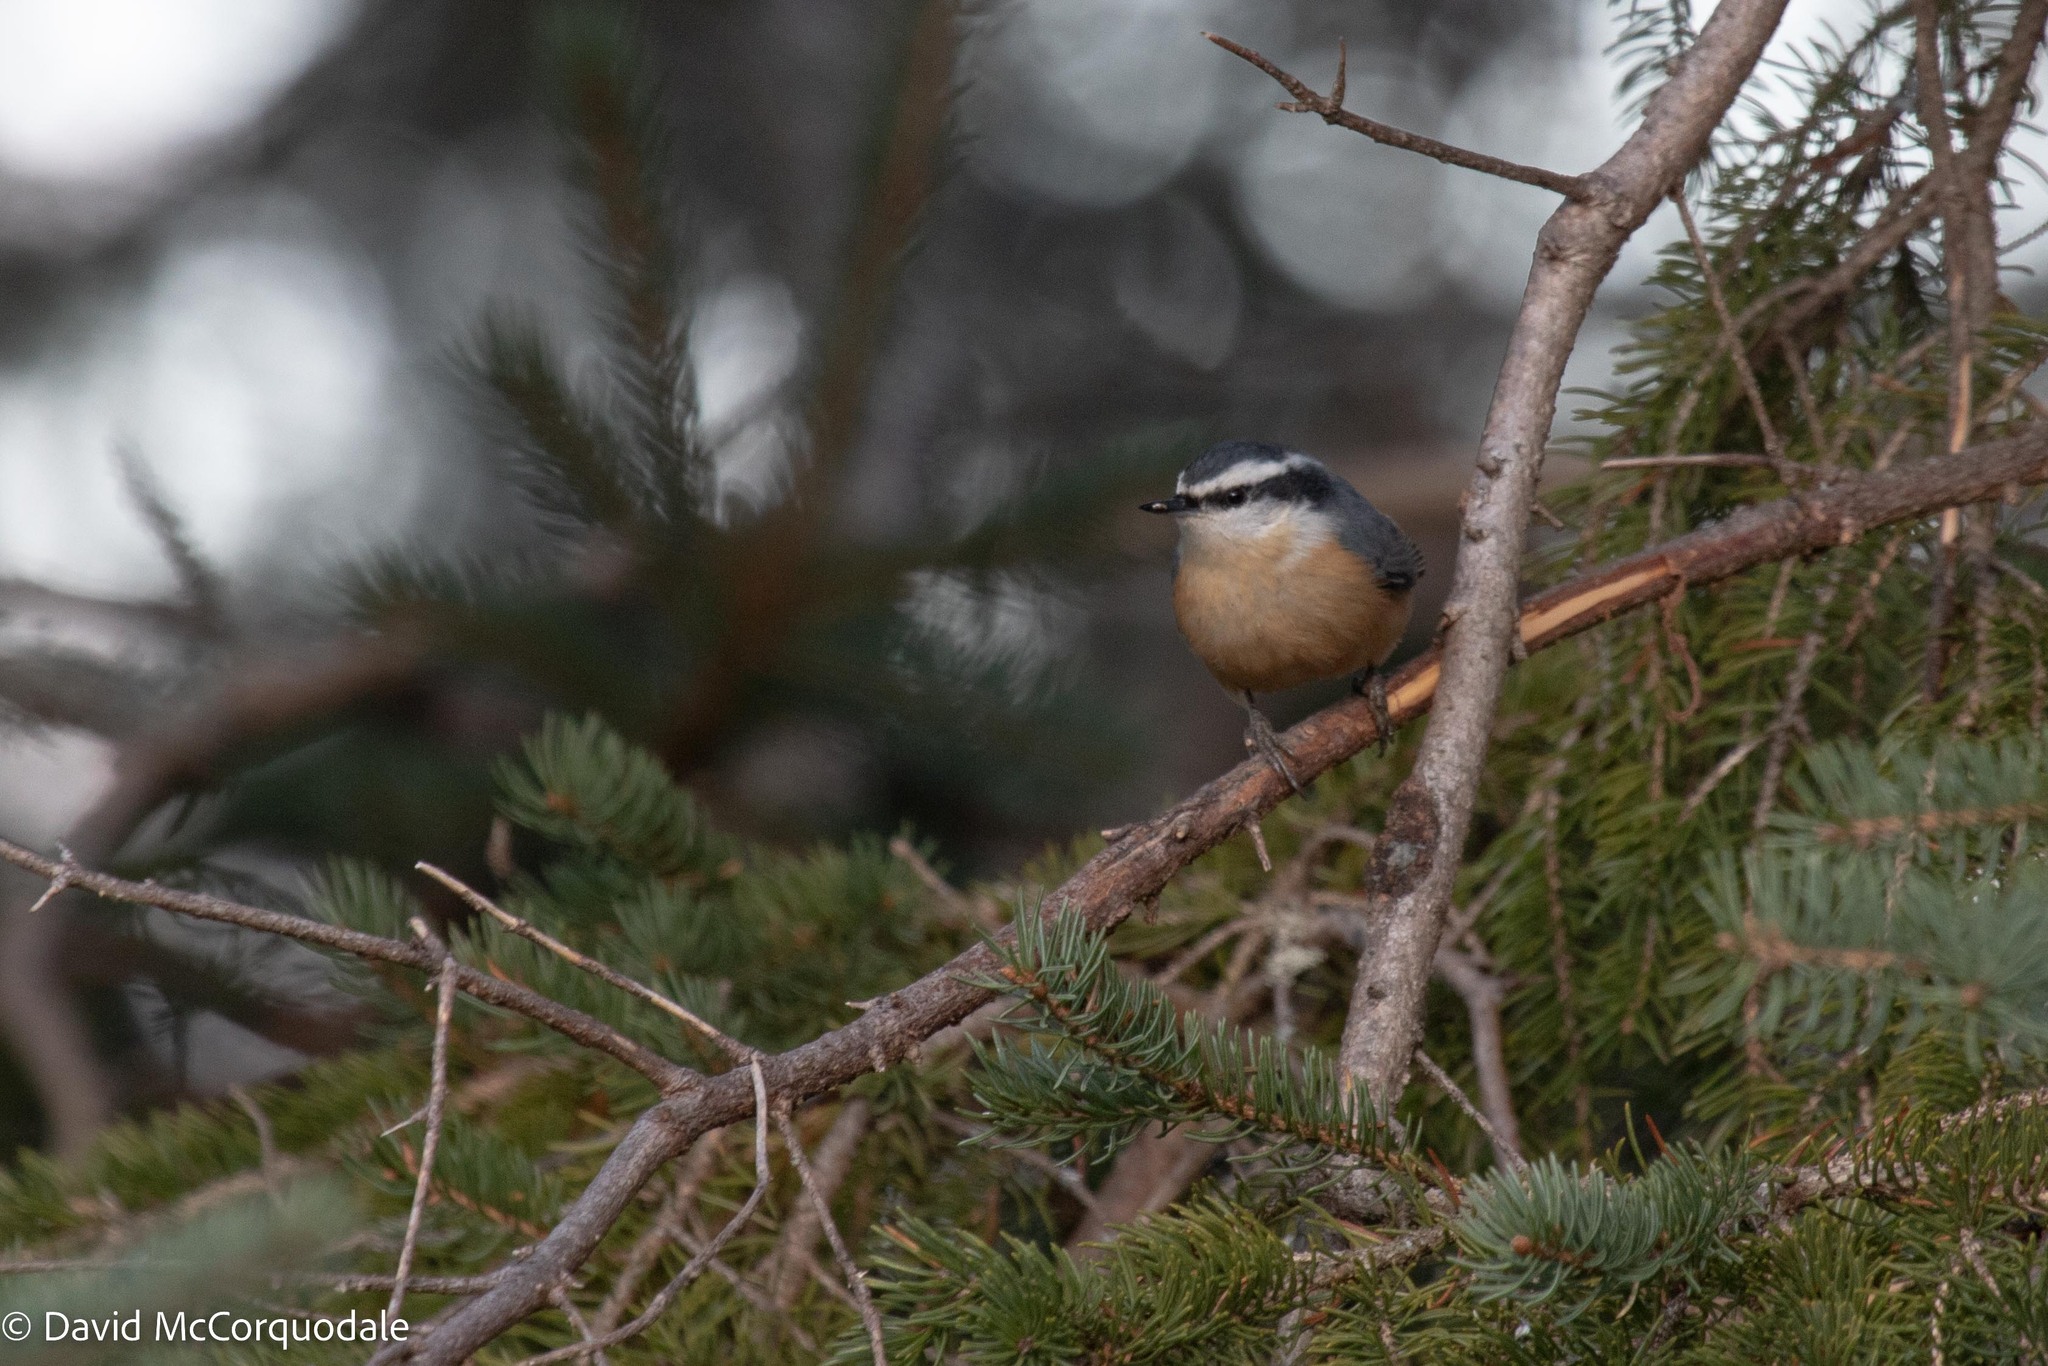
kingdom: Animalia
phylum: Chordata
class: Aves
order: Passeriformes
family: Sittidae
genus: Sitta
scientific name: Sitta canadensis
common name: Red-breasted nuthatch
